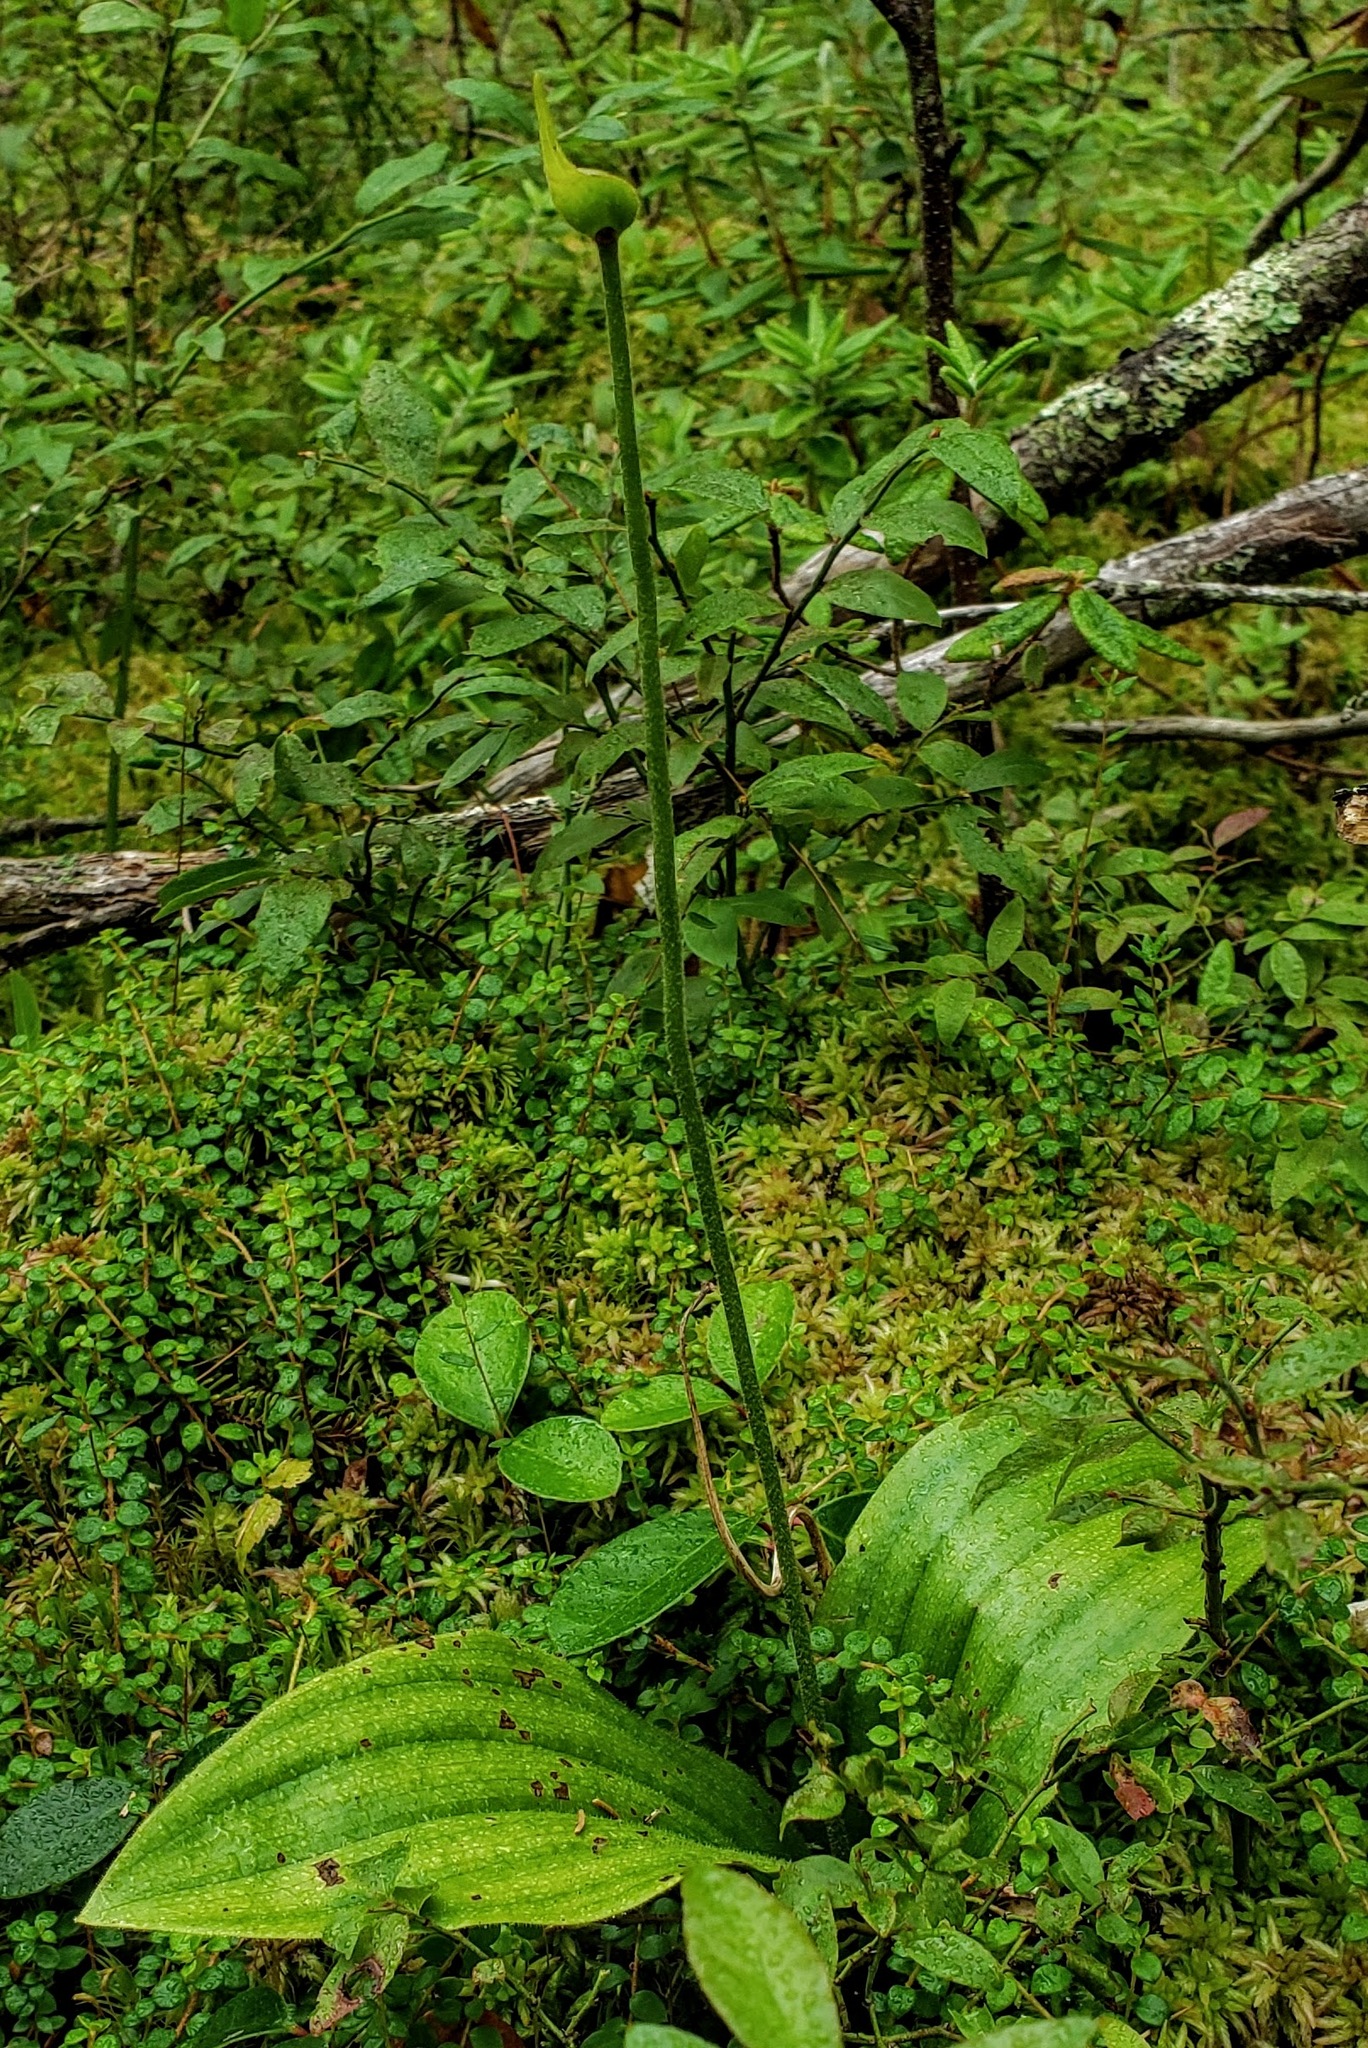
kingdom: Plantae
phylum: Tracheophyta
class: Liliopsida
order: Asparagales
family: Orchidaceae
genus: Cypripedium
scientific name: Cypripedium acaule
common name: Pink lady's-slipper
